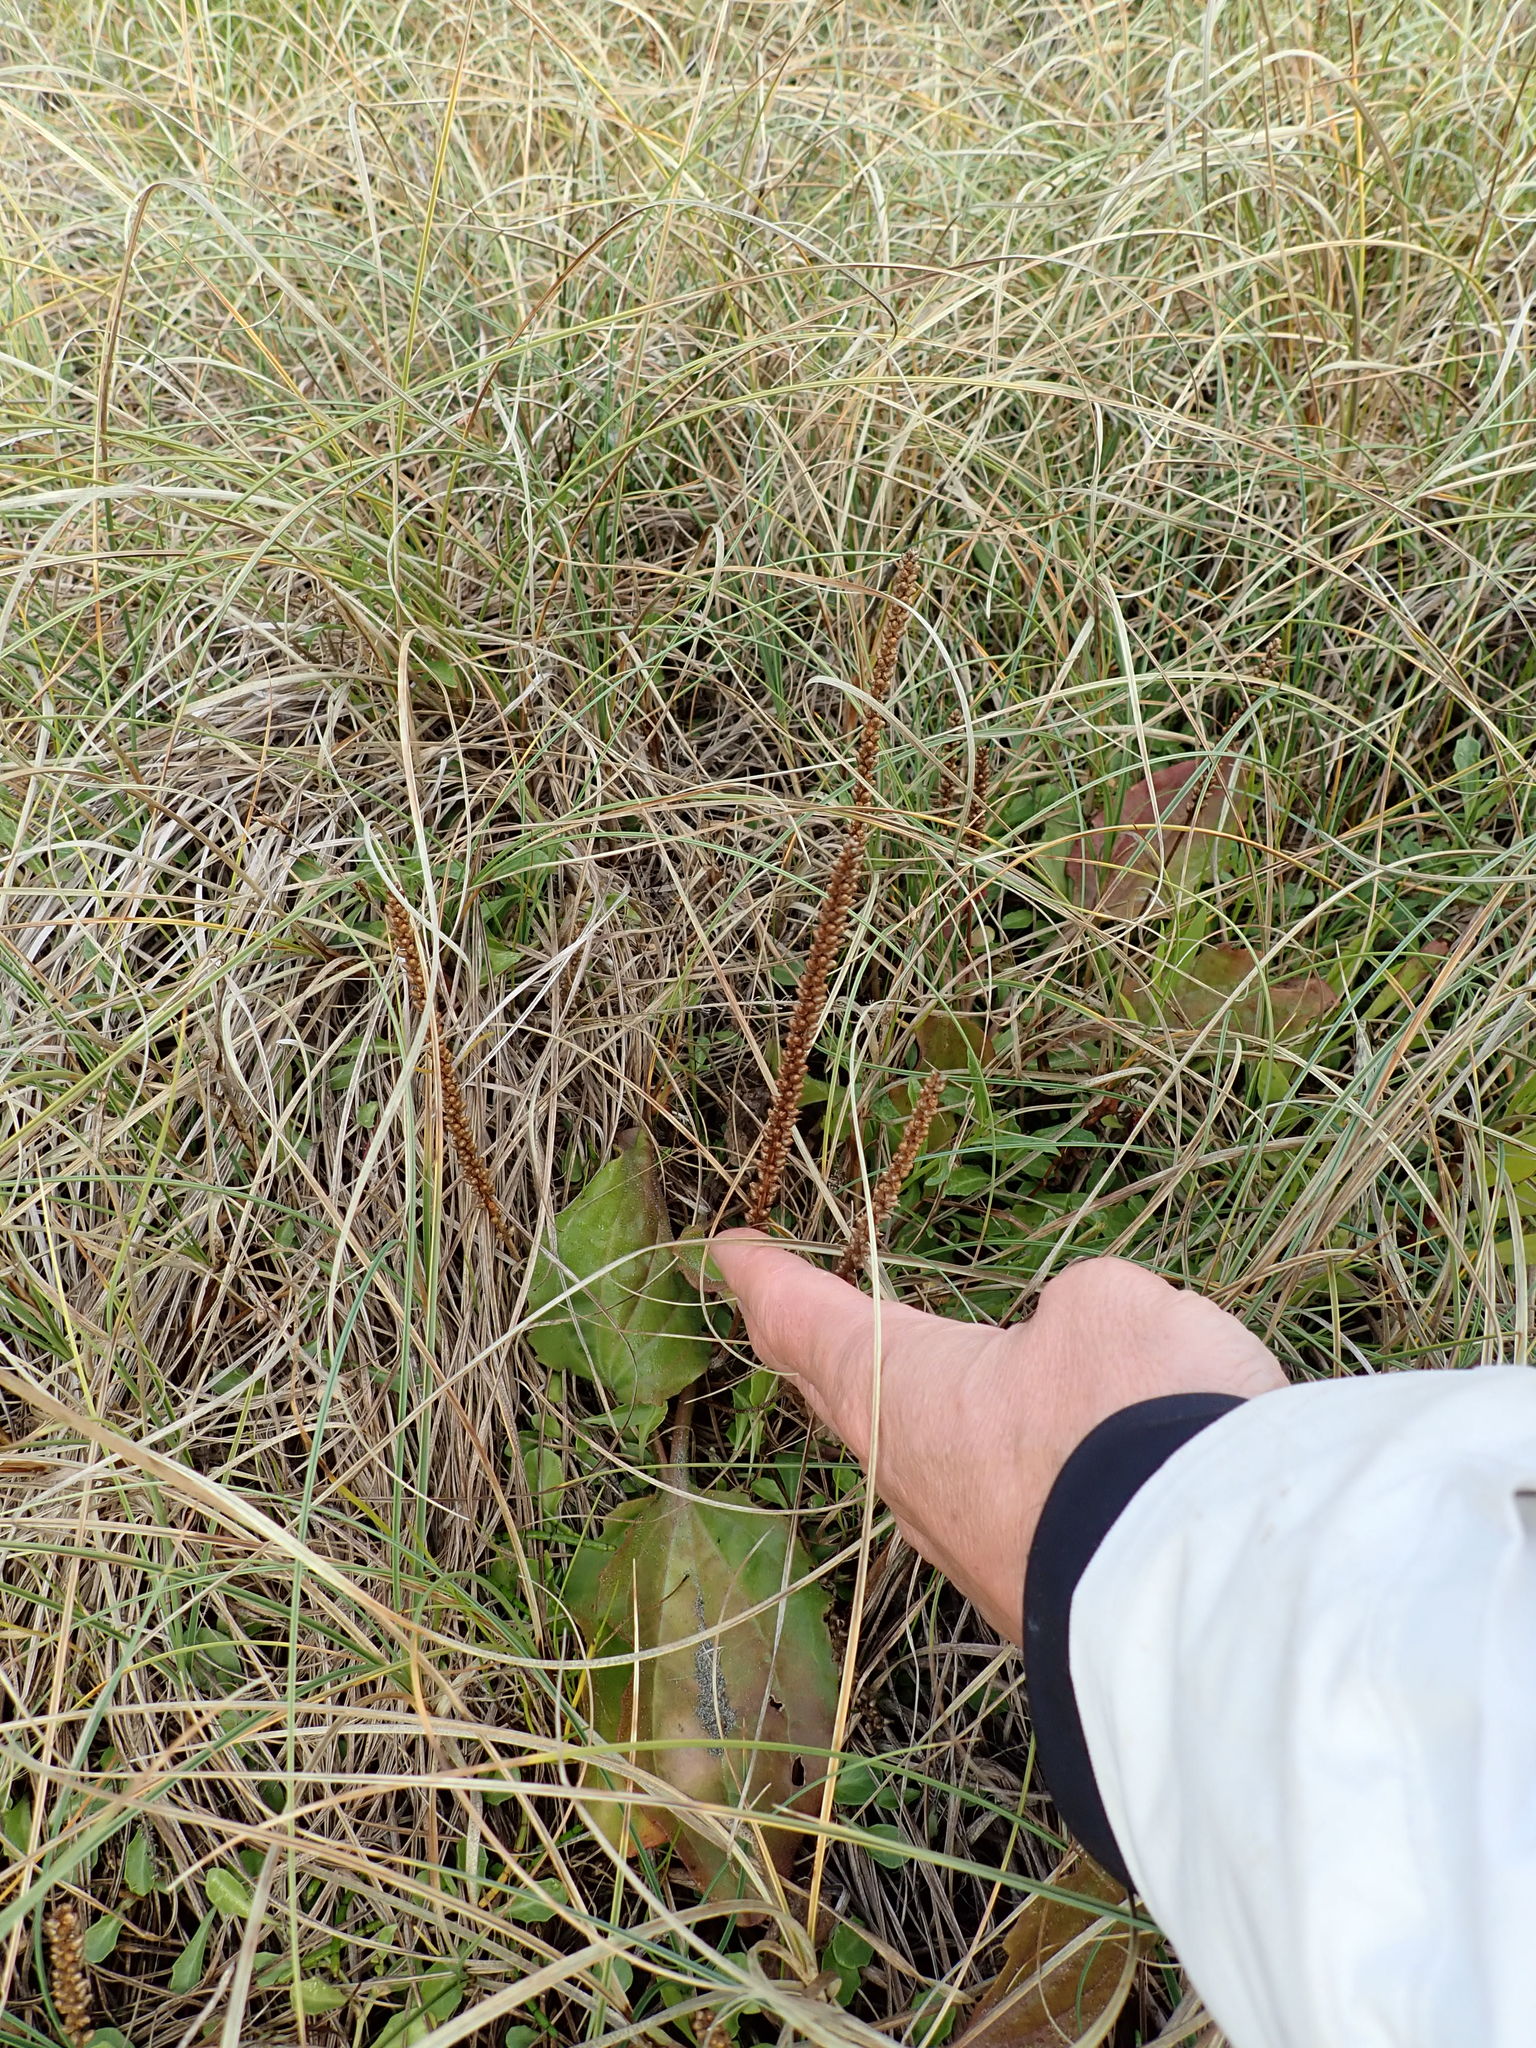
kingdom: Plantae
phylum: Tracheophyta
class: Magnoliopsida
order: Lamiales
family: Plantaginaceae
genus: Plantago
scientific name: Plantago australis
